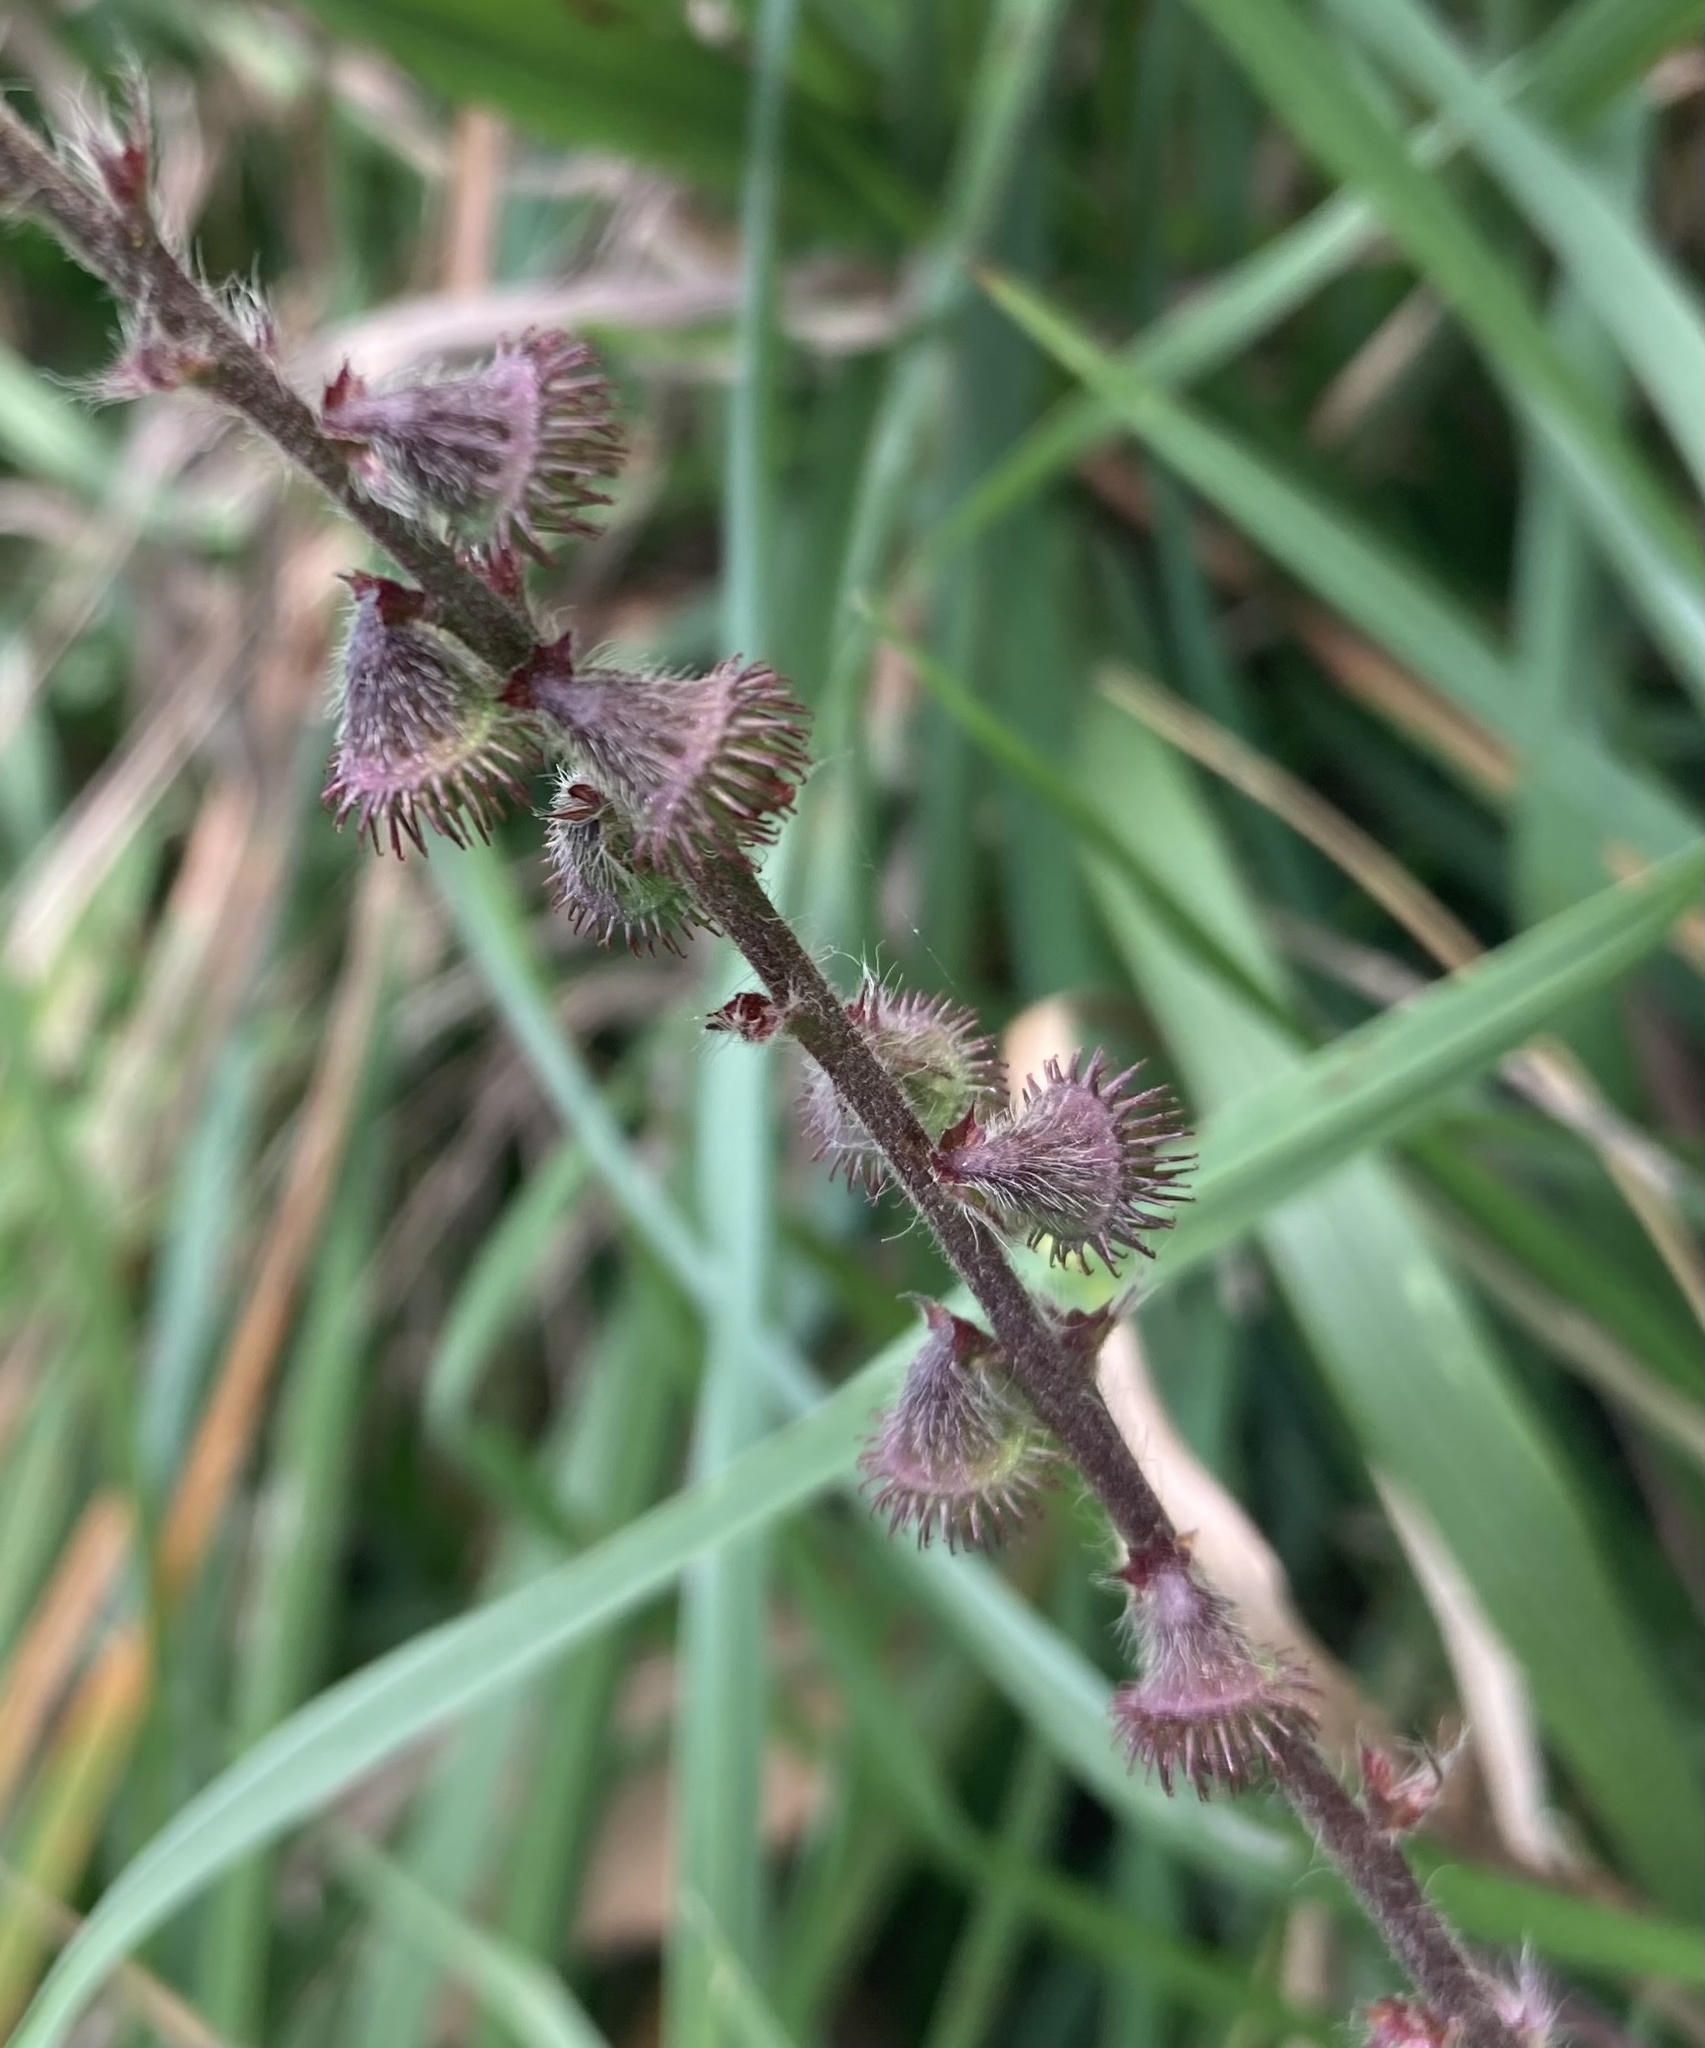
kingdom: Plantae
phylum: Tracheophyta
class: Magnoliopsida
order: Rosales
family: Rosaceae
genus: Agrimonia
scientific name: Agrimonia eupatoria
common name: Agrimony
